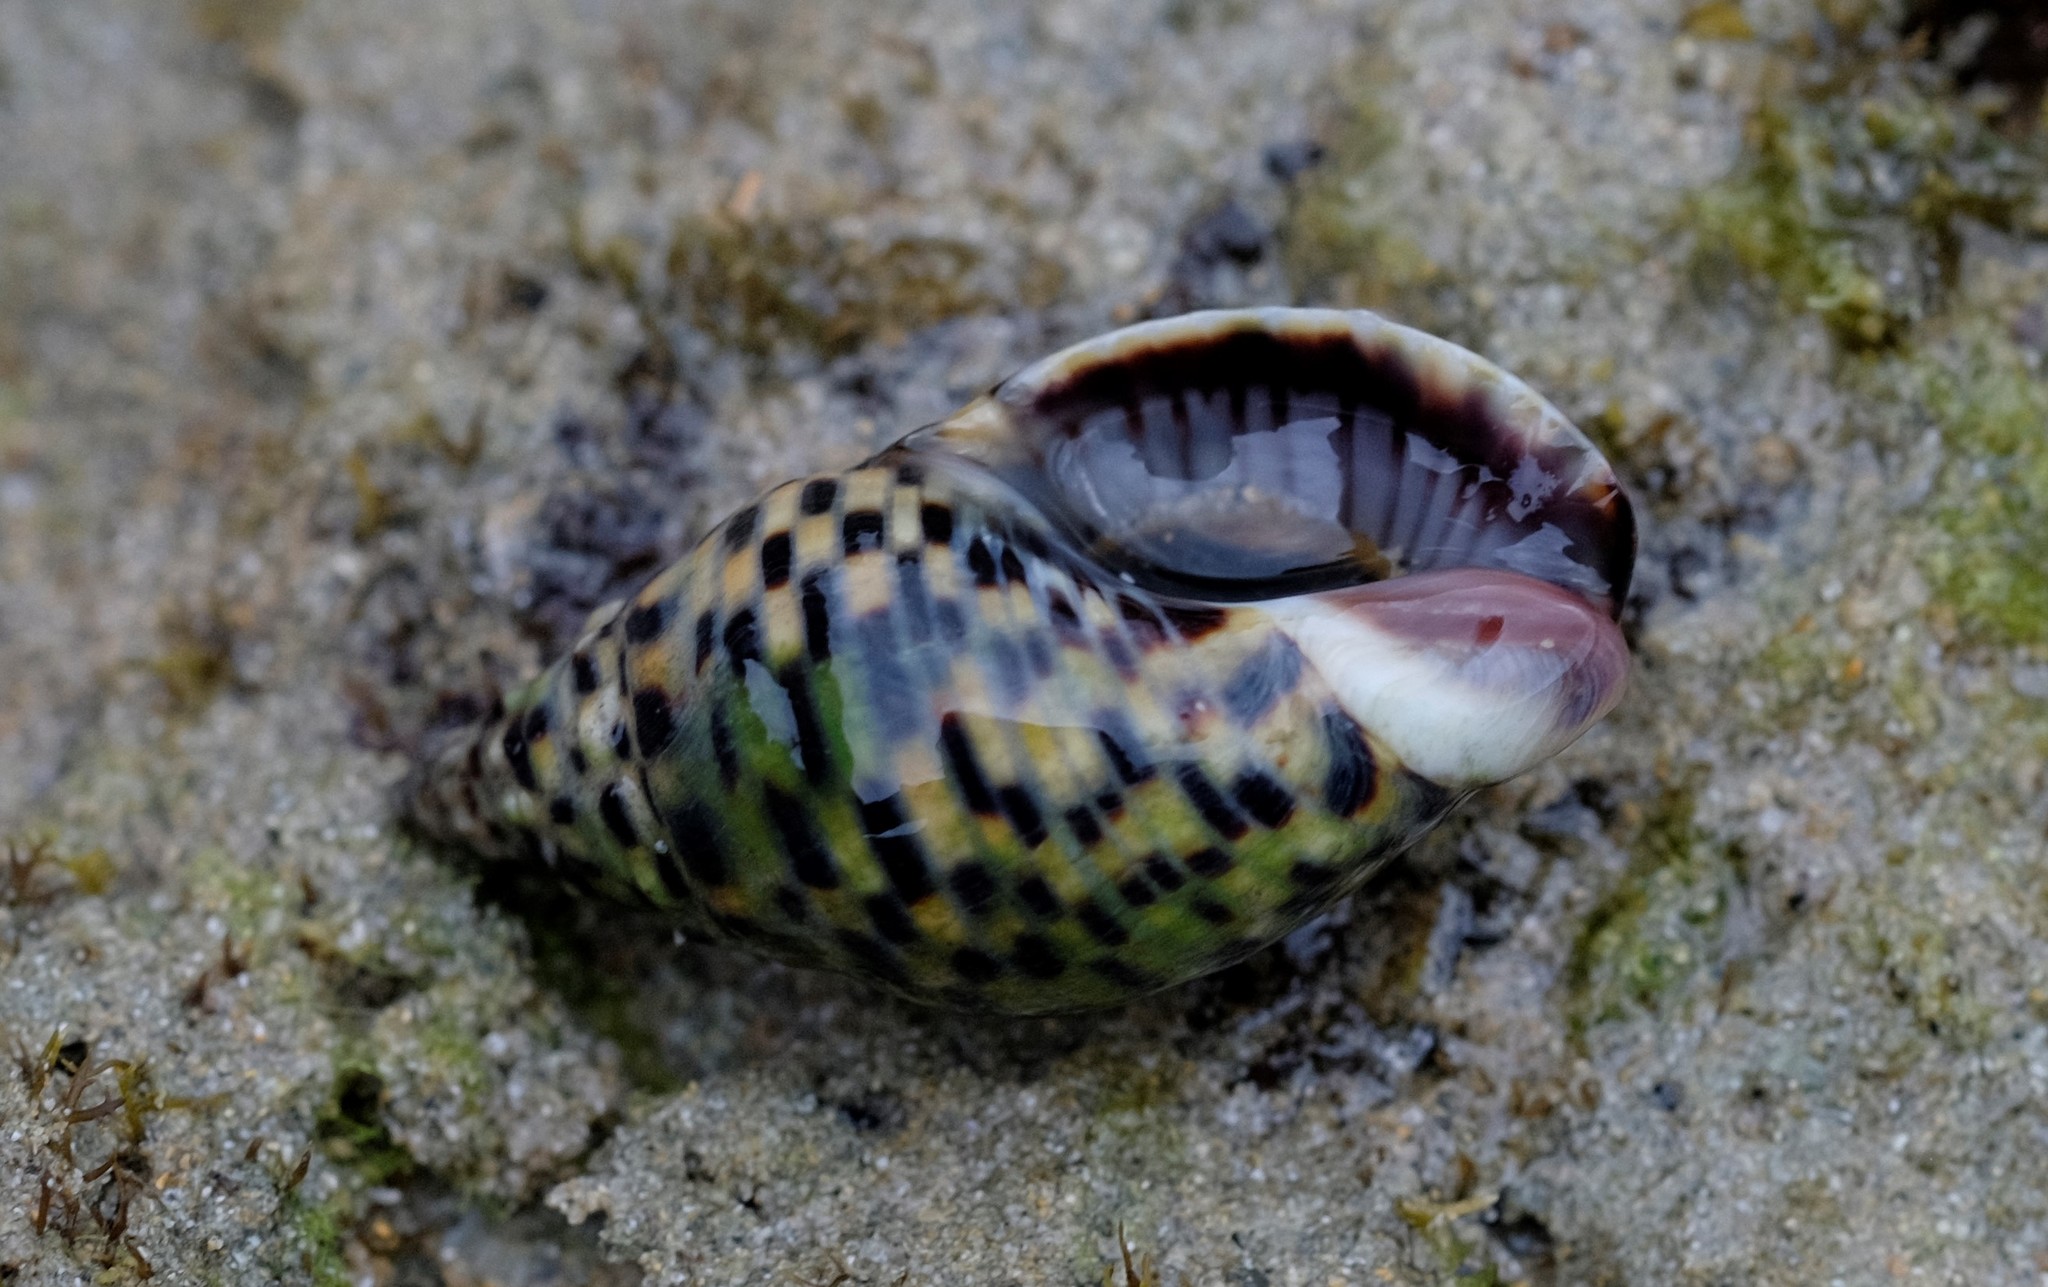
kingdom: Animalia
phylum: Mollusca
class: Gastropoda
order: Neogastropoda
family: Cominellidae
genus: Cominella
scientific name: Cominella lineolata
